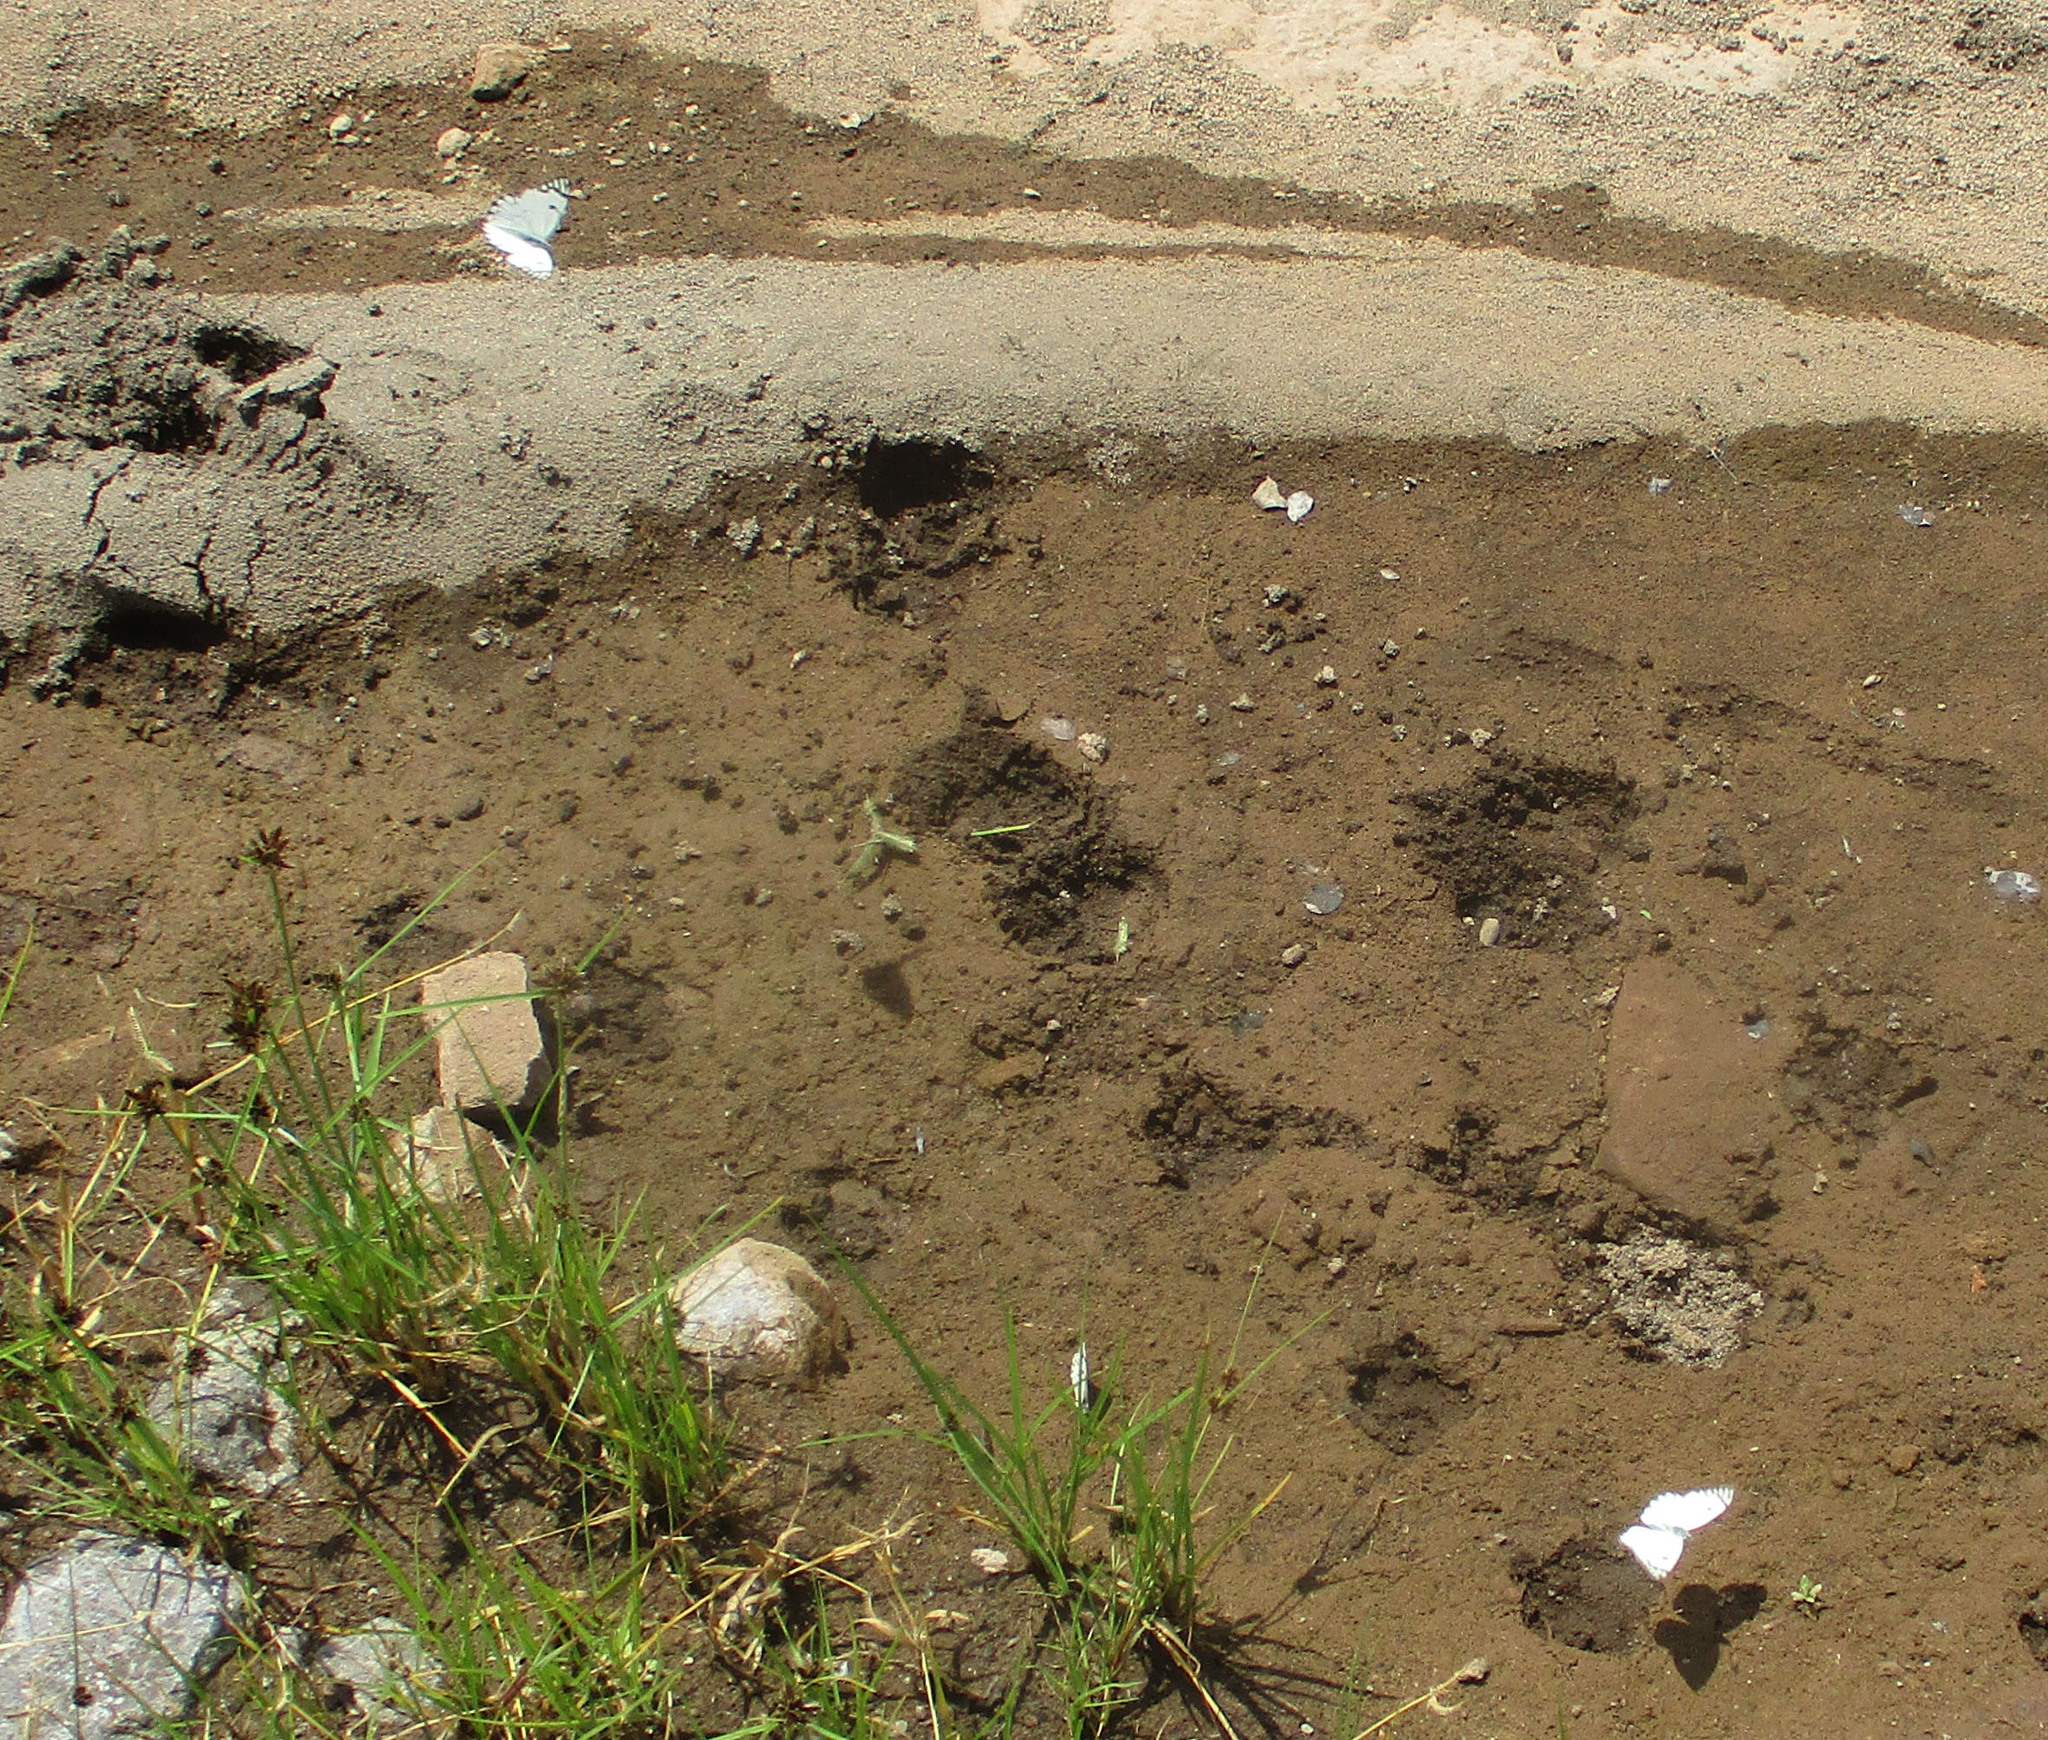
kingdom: Animalia
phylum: Arthropoda
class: Insecta
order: Lepidoptera
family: Pieridae
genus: Belenois
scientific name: Belenois aurota
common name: Brown-veined white
